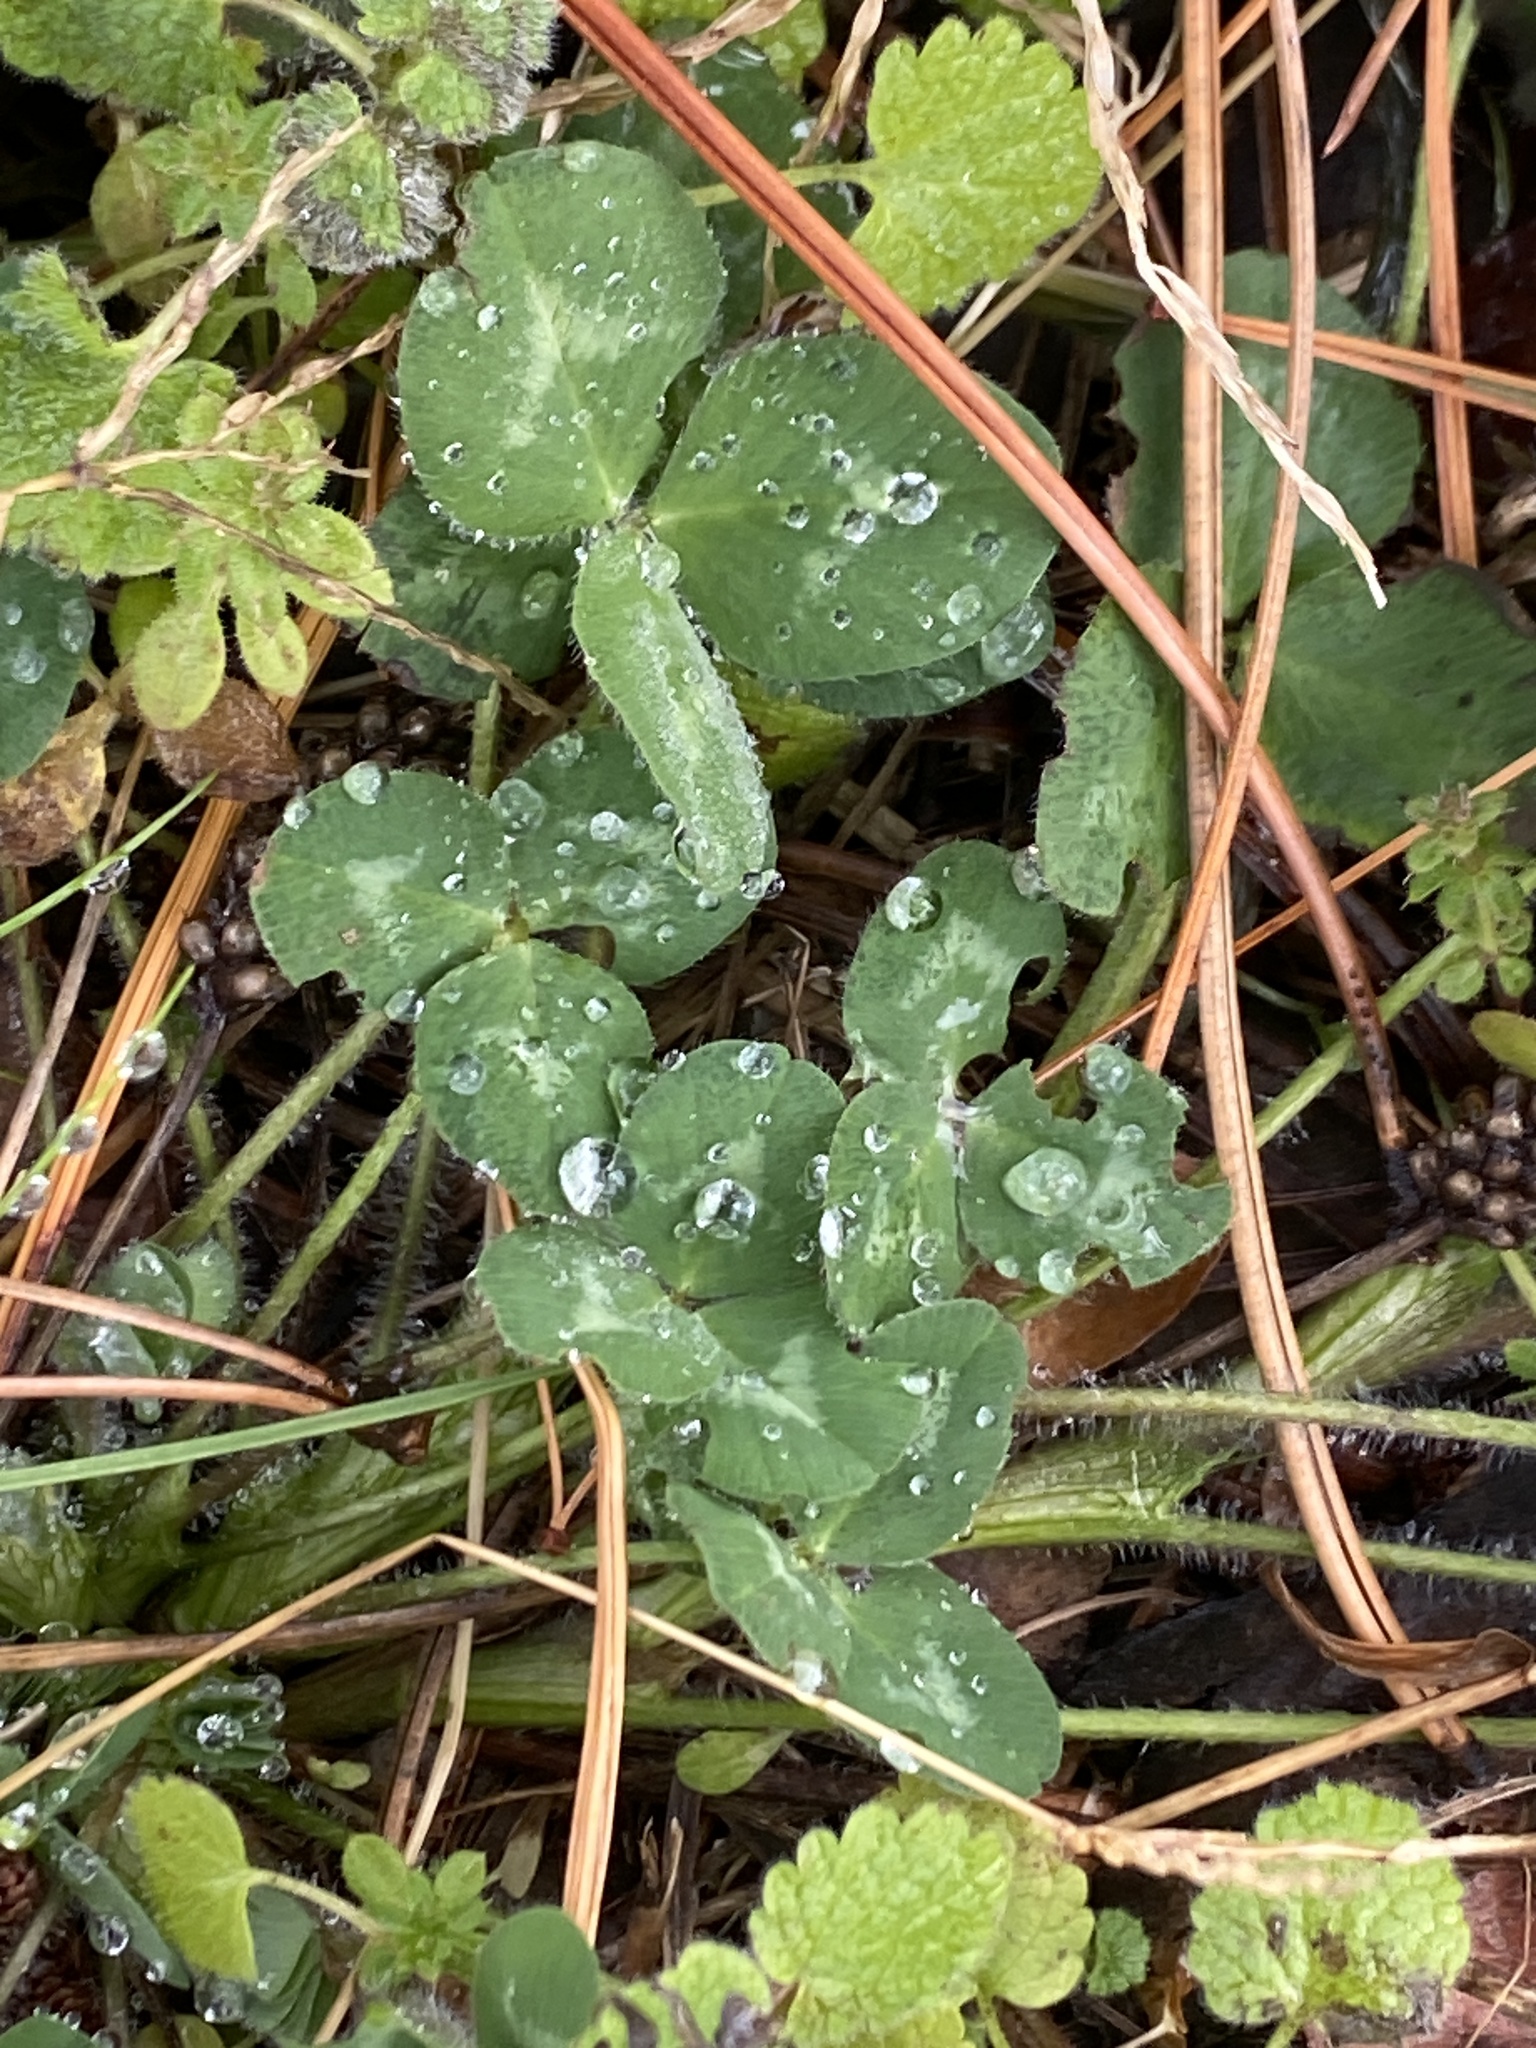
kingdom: Plantae
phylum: Tracheophyta
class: Magnoliopsida
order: Fabales
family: Fabaceae
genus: Trifolium
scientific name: Trifolium pratense
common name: Red clover
